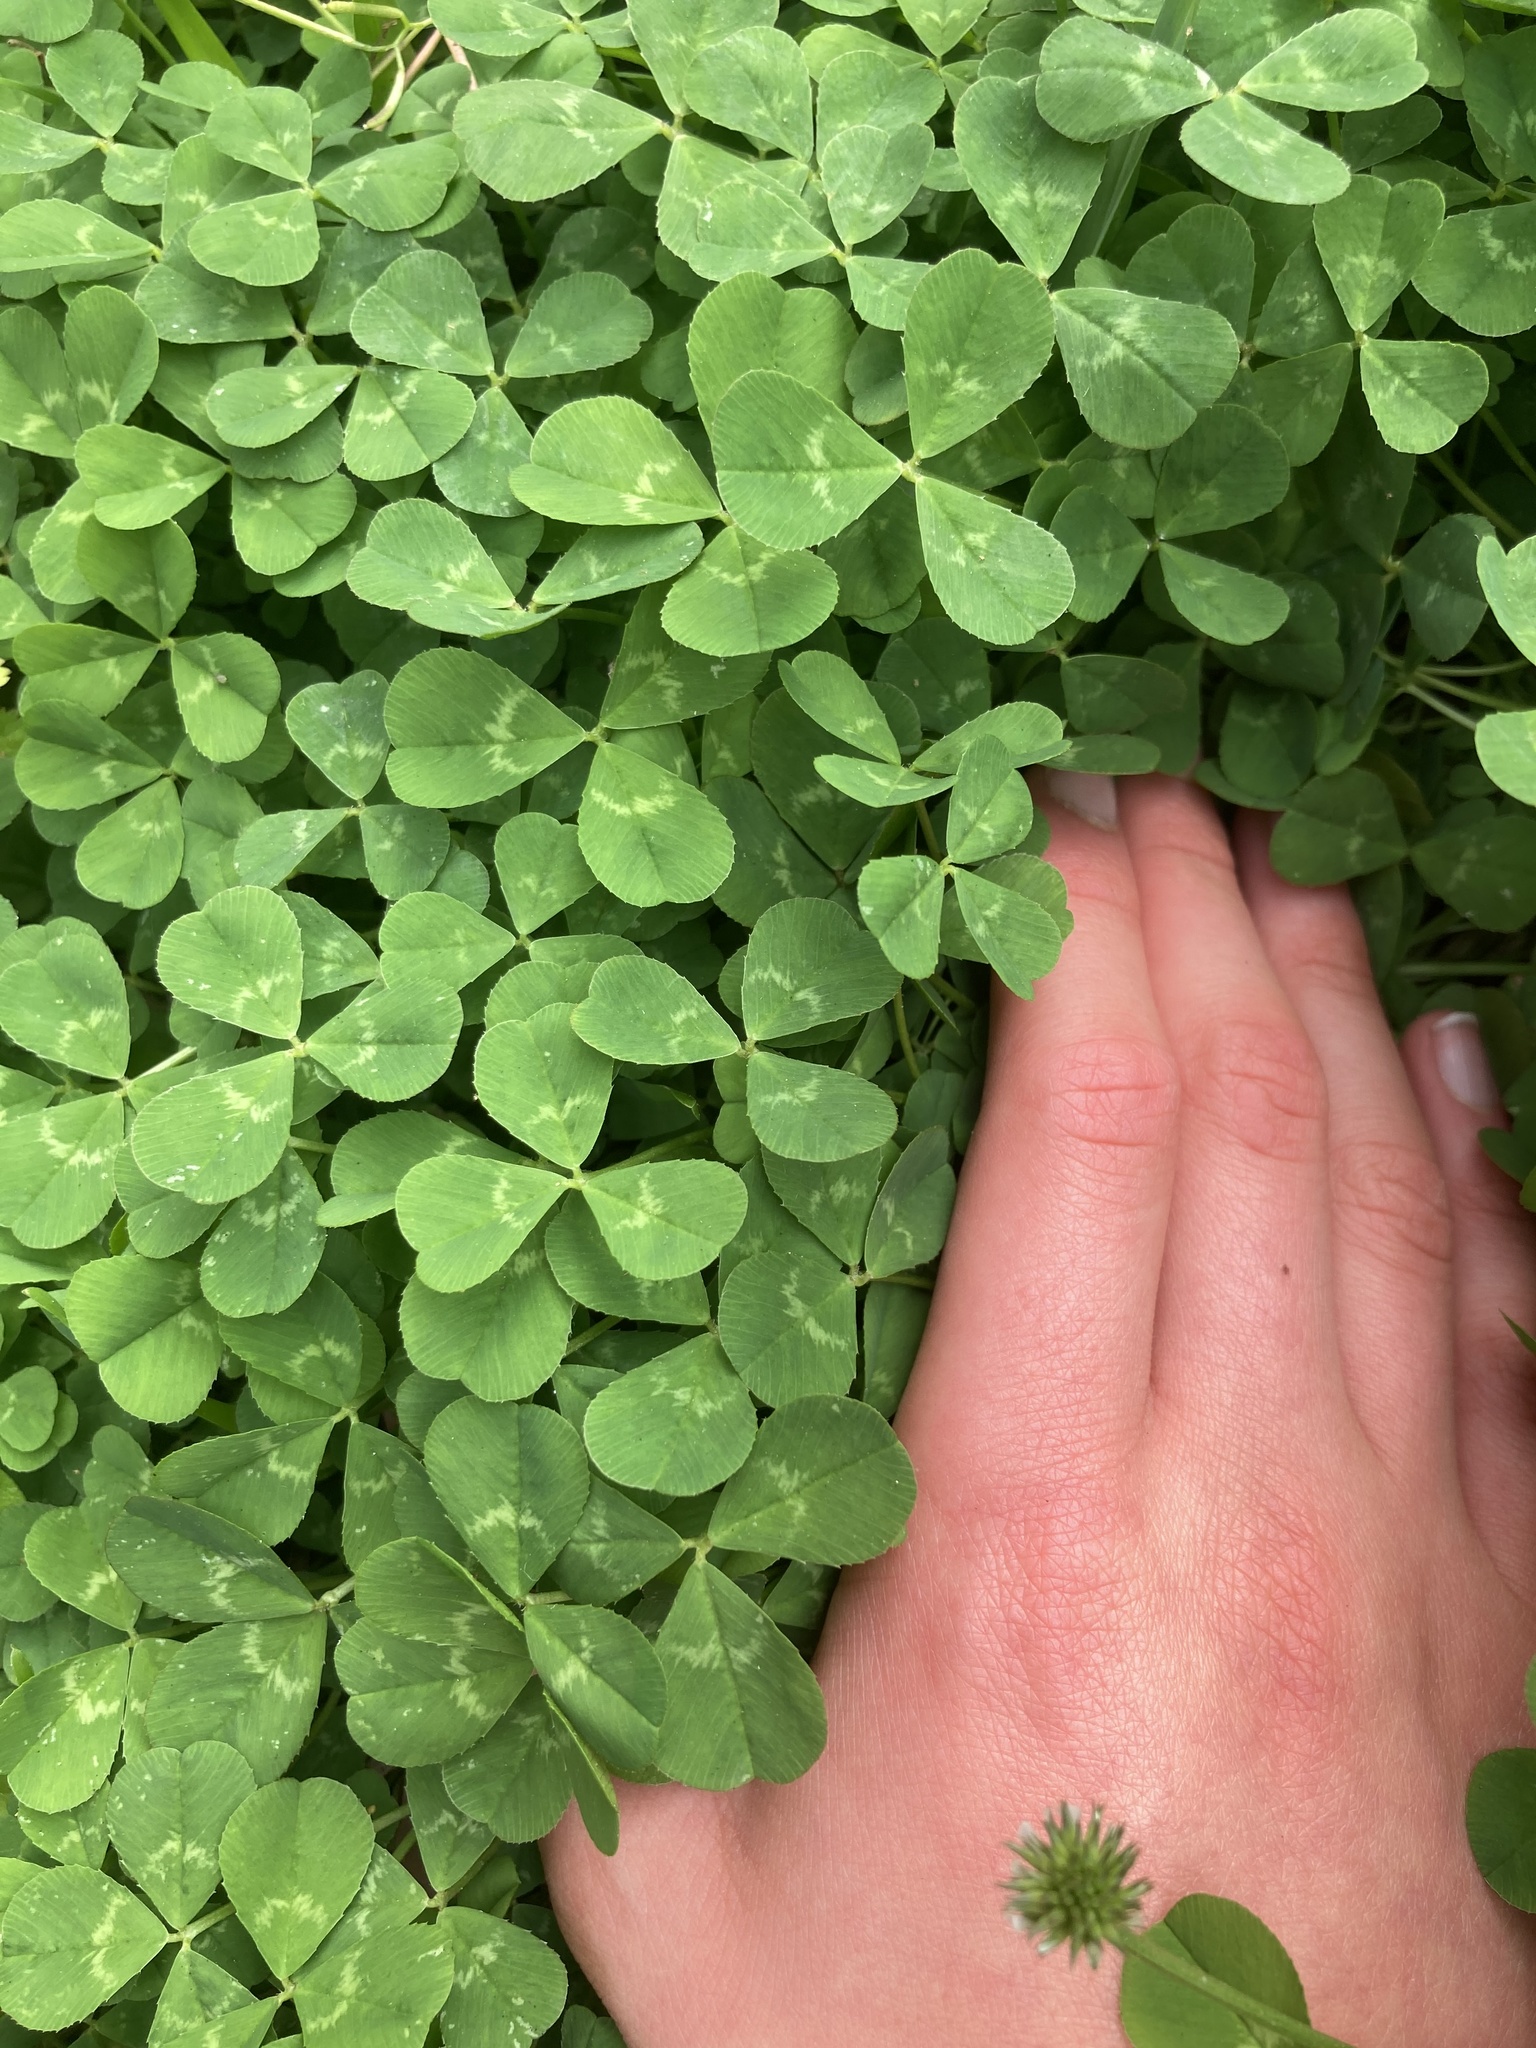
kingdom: Plantae
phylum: Tracheophyta
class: Magnoliopsida
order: Fabales
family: Fabaceae
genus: Trifolium
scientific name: Trifolium repens
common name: White clover
